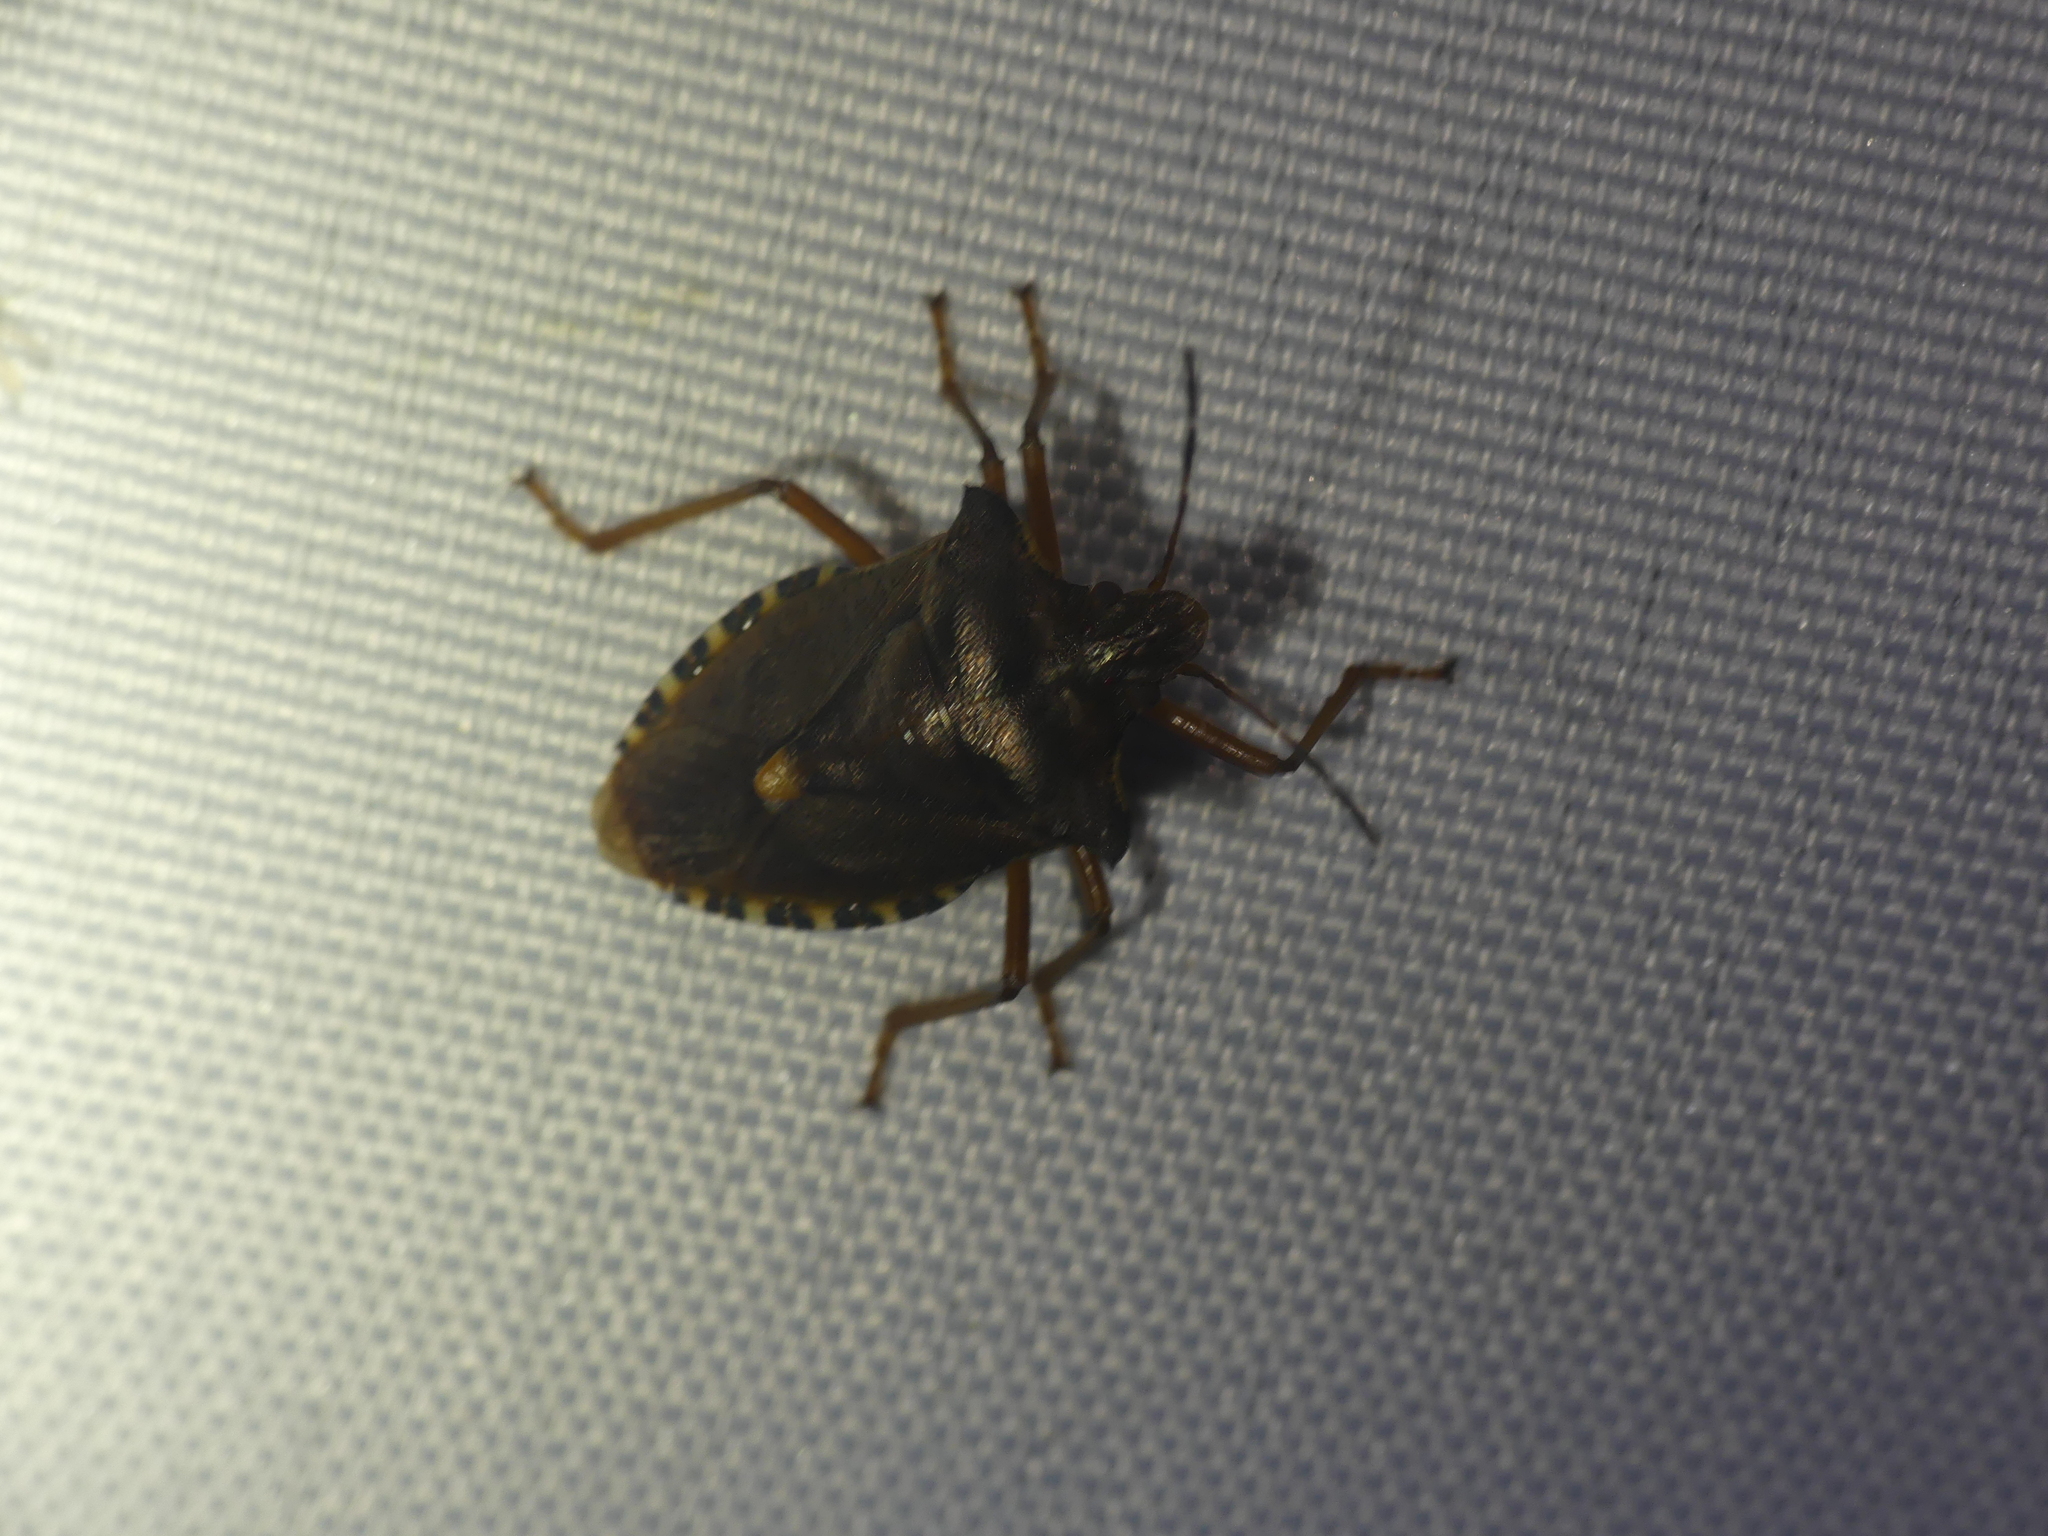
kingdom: Animalia
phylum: Arthropoda
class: Insecta
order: Hemiptera
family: Pentatomidae
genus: Pentatoma
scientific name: Pentatoma rufipes
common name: Forest bug
